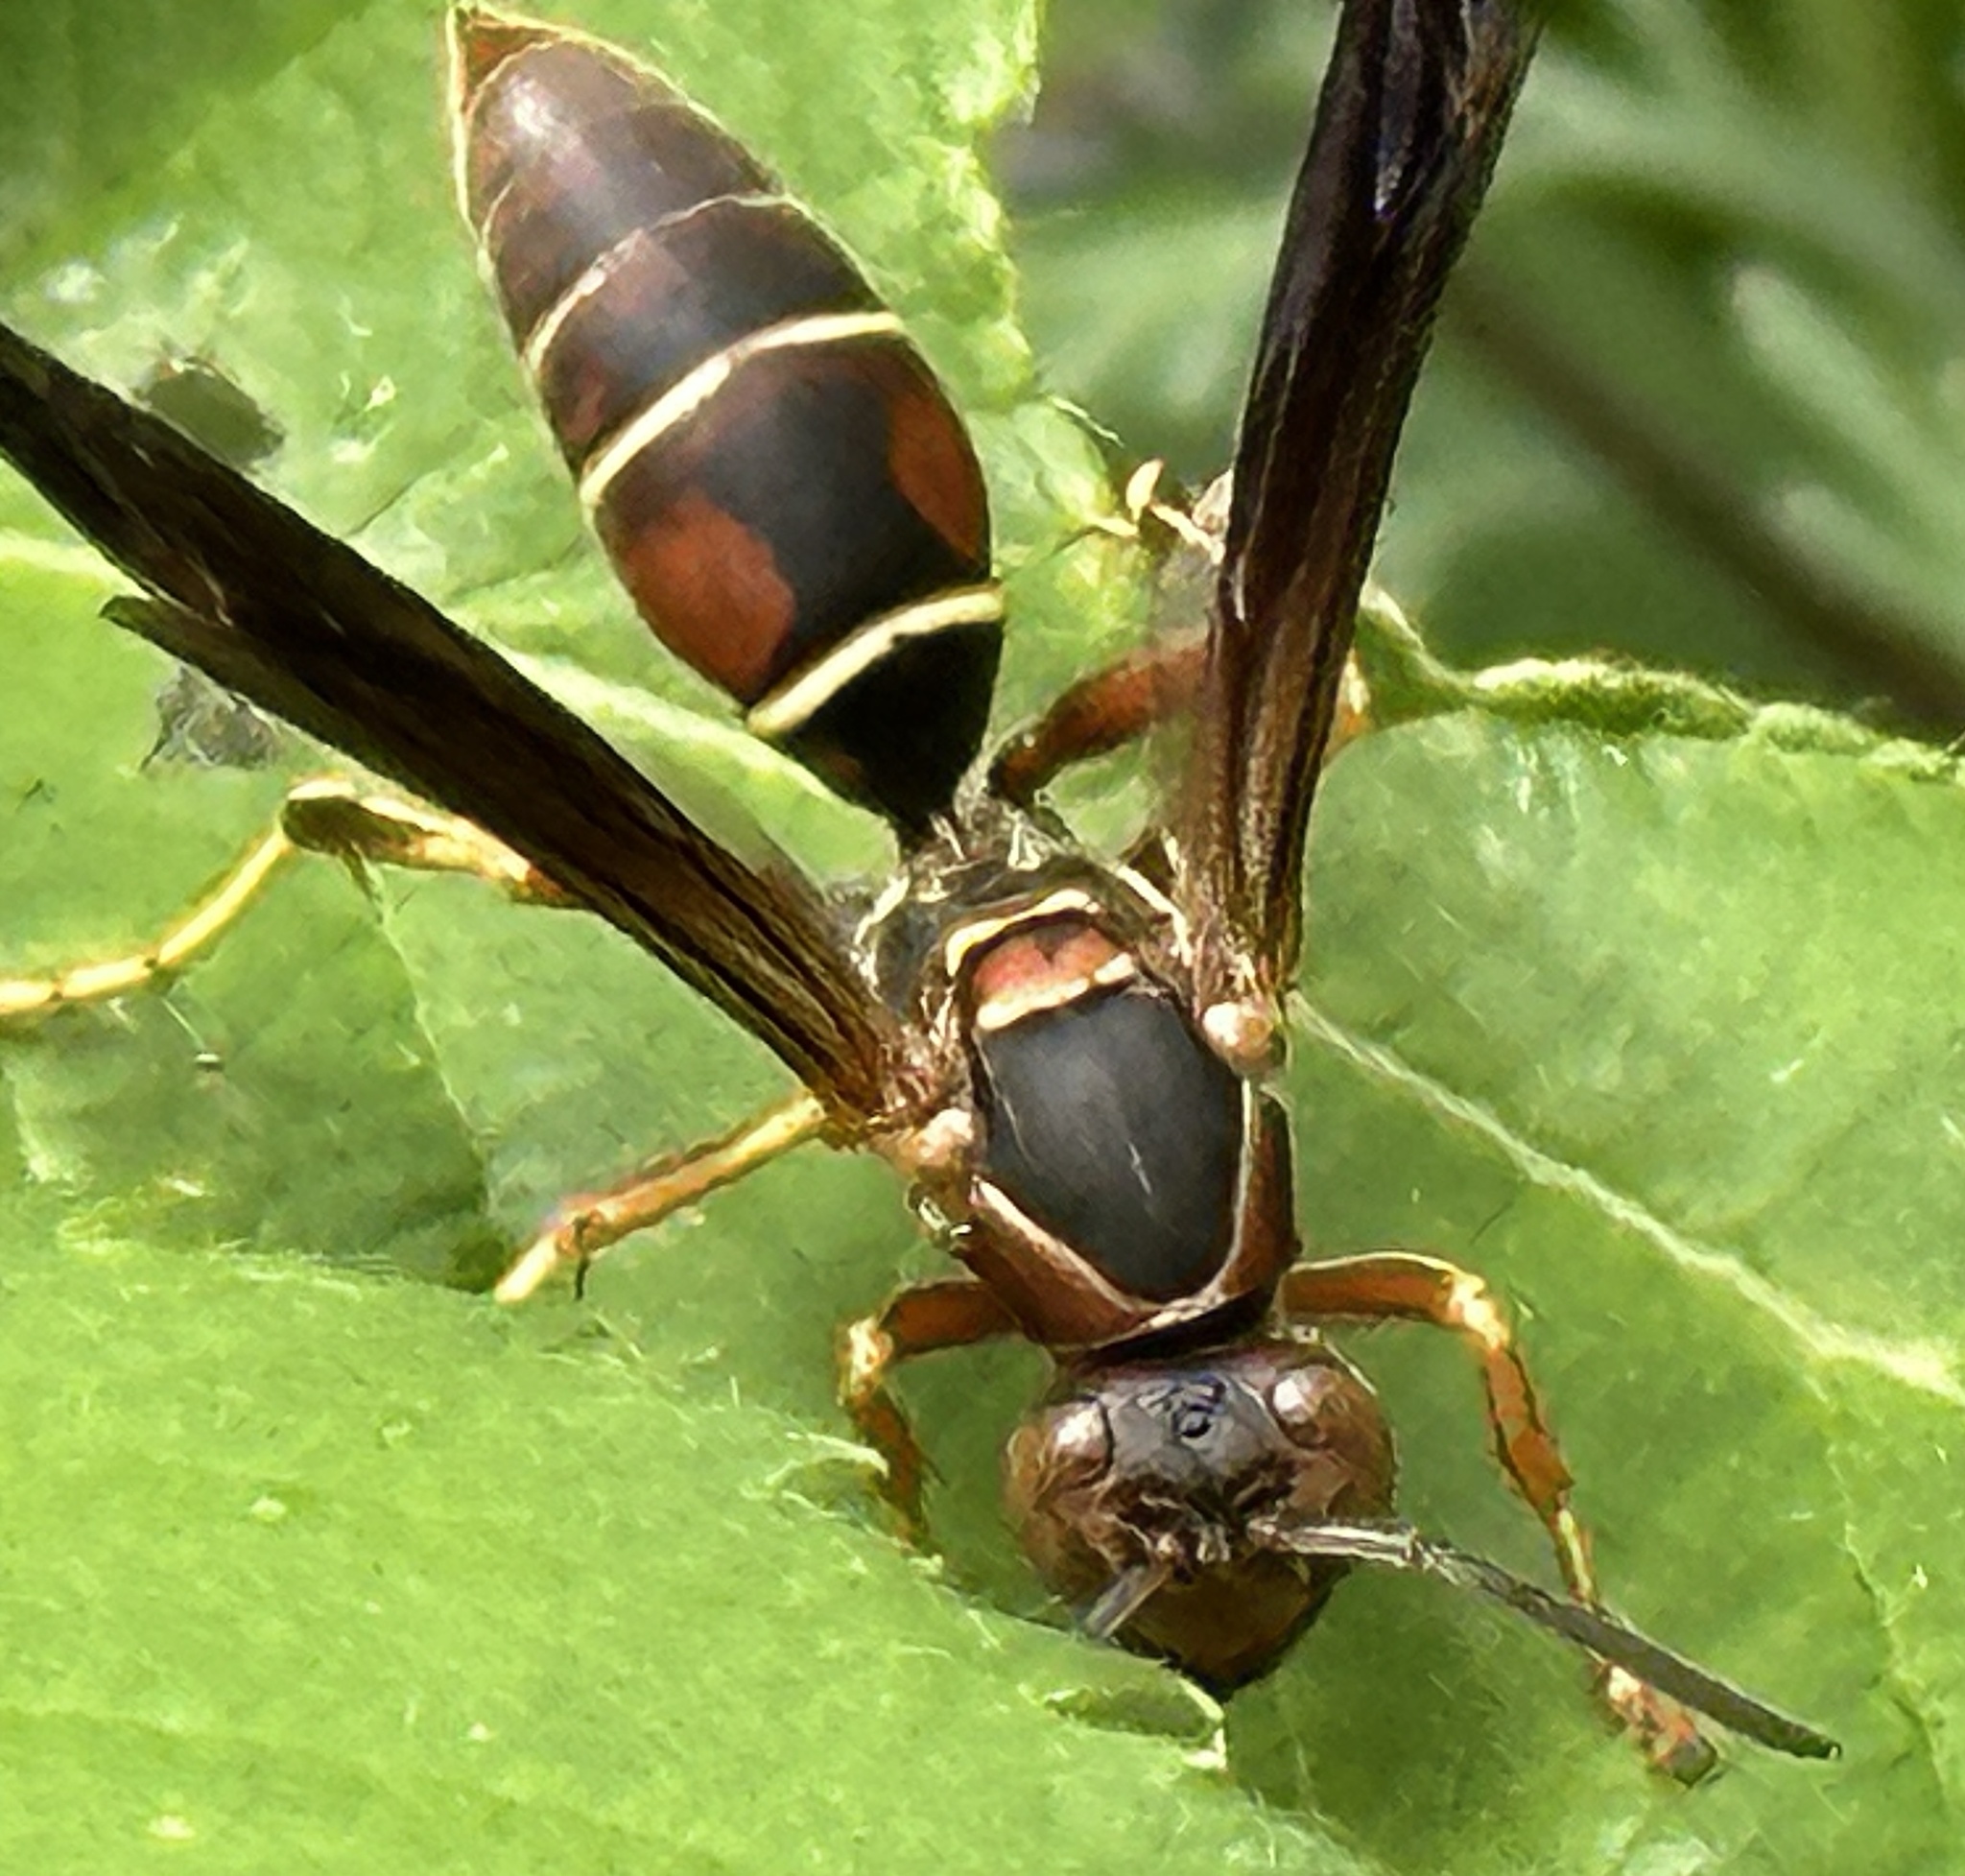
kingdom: Animalia
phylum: Arthropoda
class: Insecta
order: Hymenoptera
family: Eumenidae
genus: Polistes
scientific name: Polistes fuscatus
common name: Dark paper wasp
